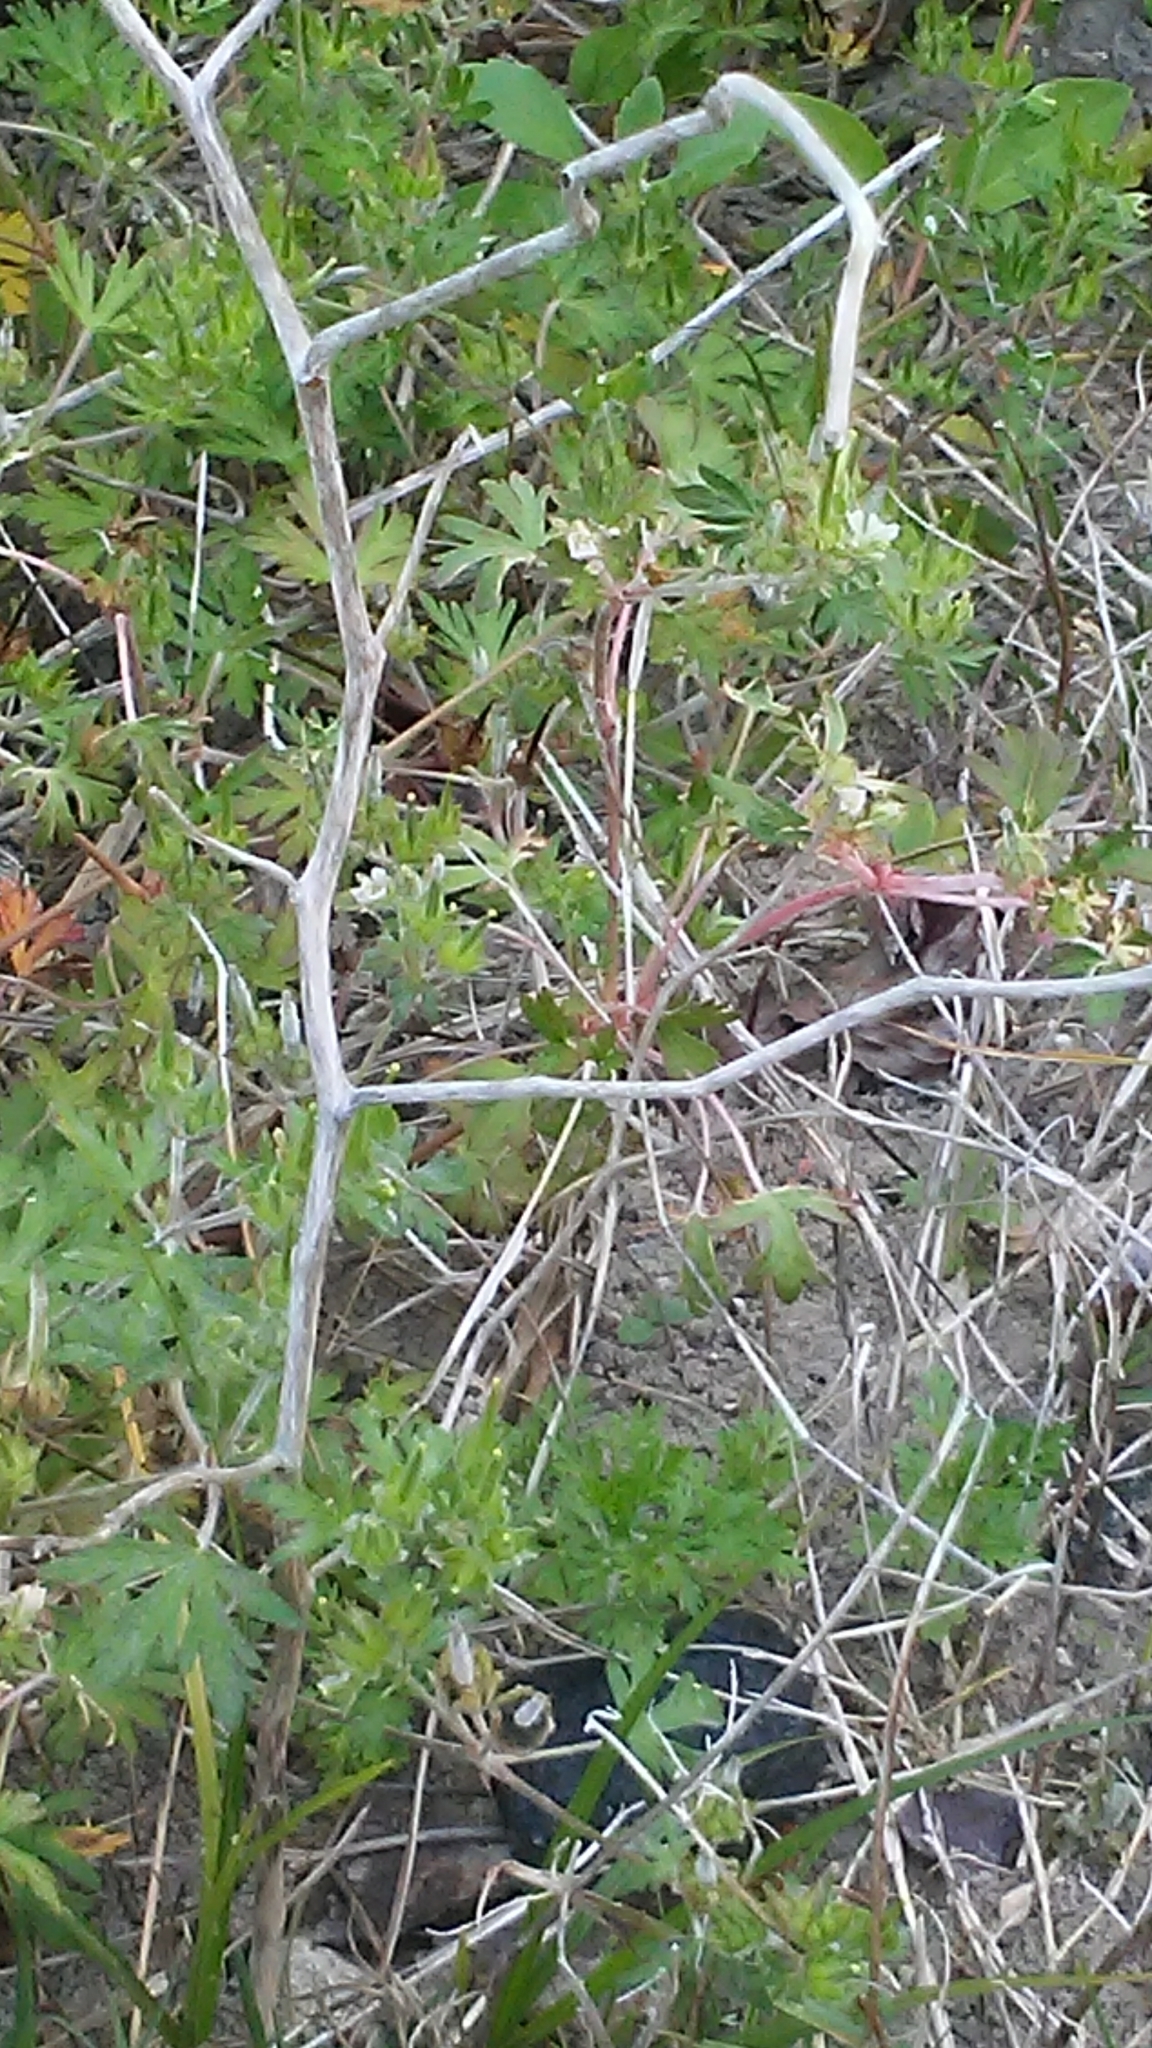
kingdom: Plantae
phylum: Tracheophyta
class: Magnoliopsida
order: Solanales
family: Solanaceae
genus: Solanum
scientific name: Solanum carolinense
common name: Horse-nettle
